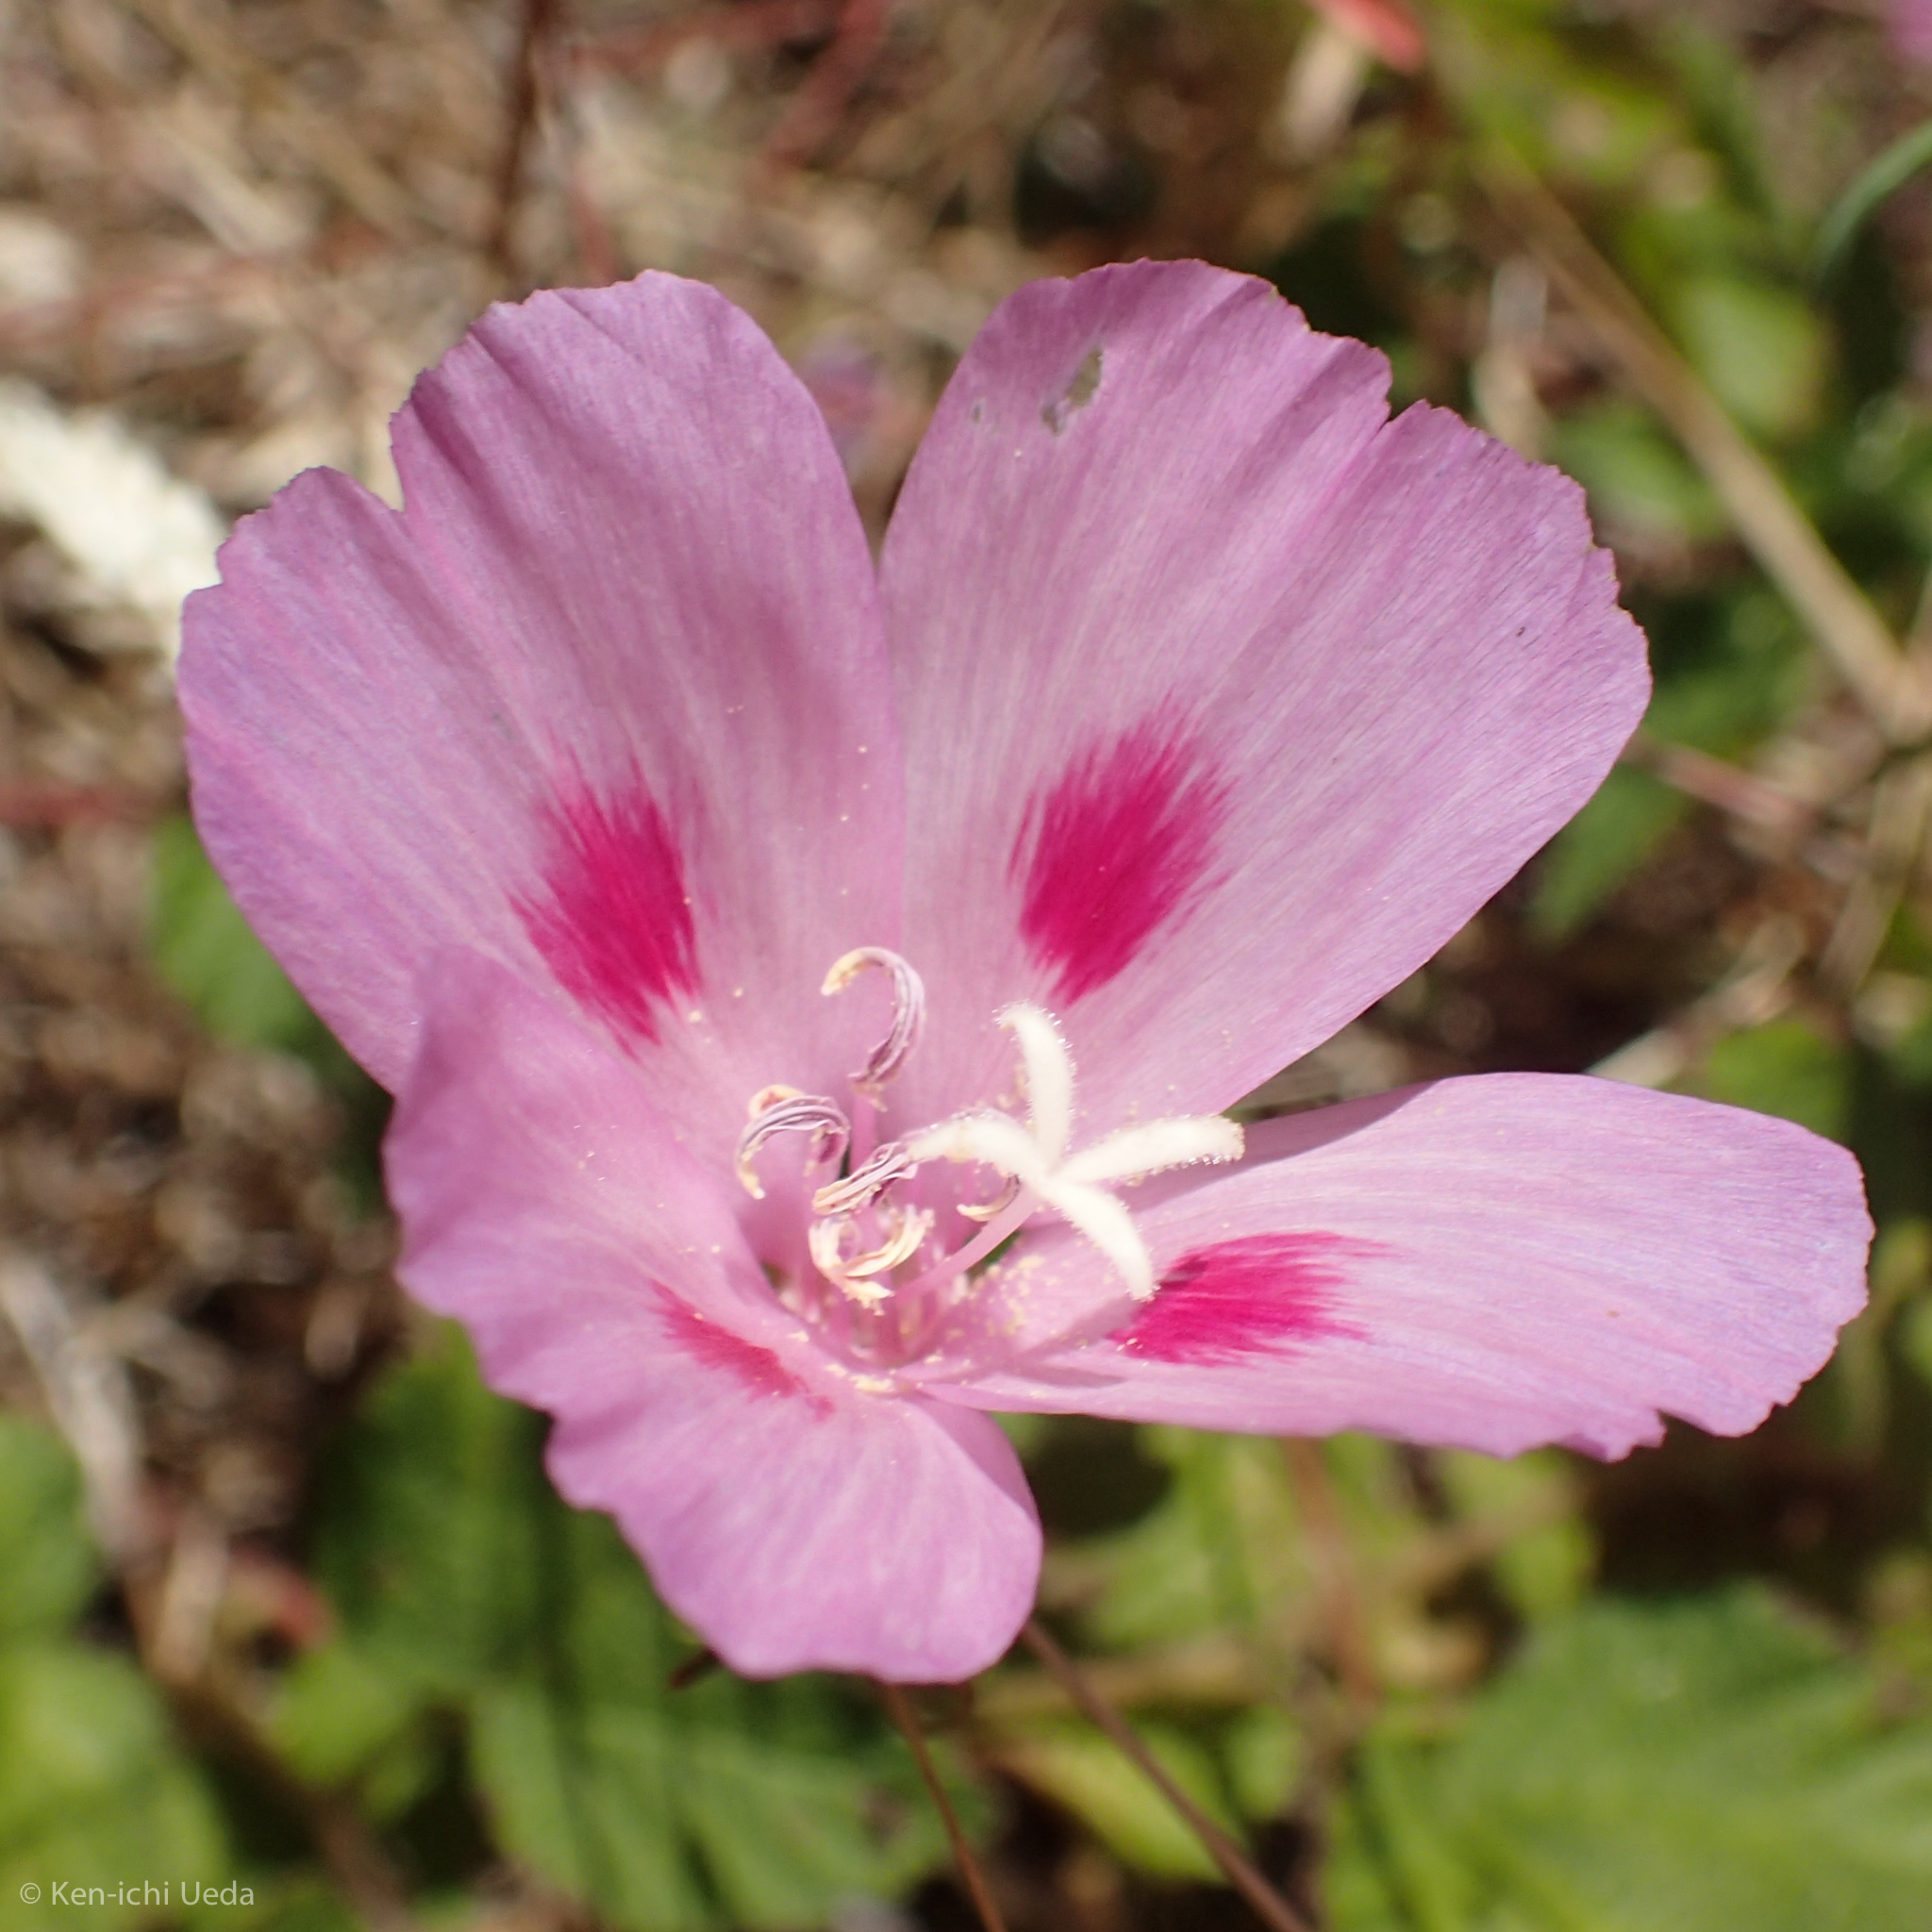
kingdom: Plantae
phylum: Tracheophyta
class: Magnoliopsida
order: Myrtales
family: Onagraceae
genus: Clarkia
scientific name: Clarkia amoena
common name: Godetia
